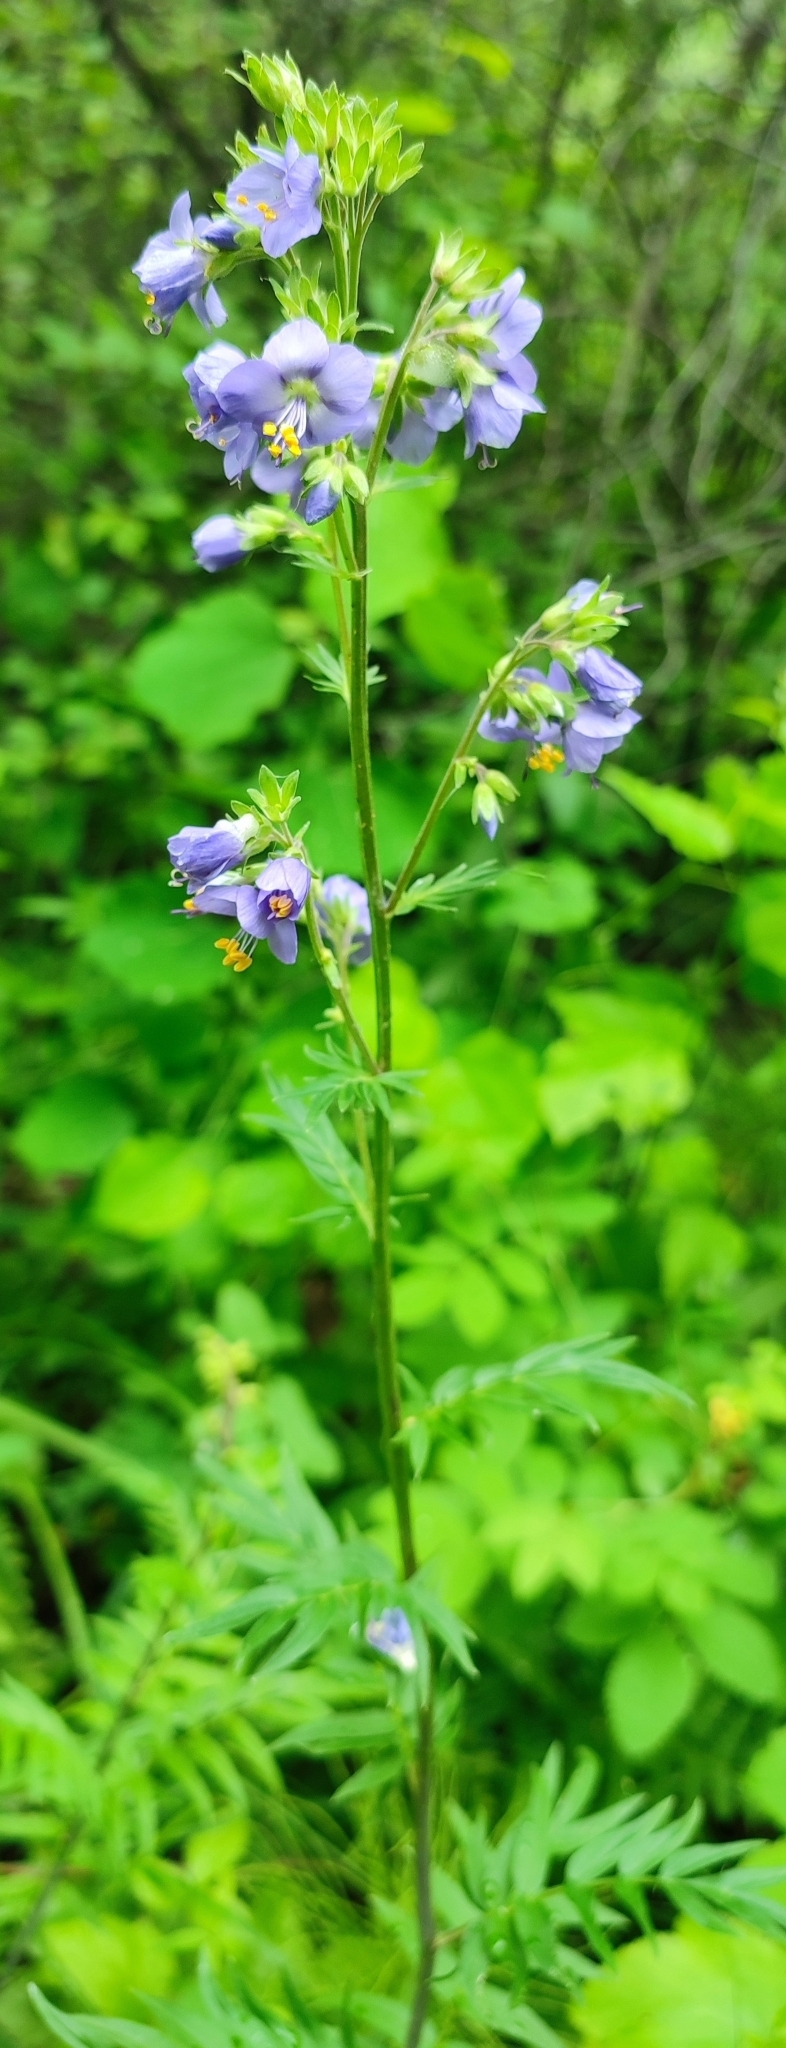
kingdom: Plantae
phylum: Tracheophyta
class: Magnoliopsida
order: Ericales
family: Polemoniaceae
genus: Polemonium
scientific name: Polemonium caeruleum
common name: Jacob's-ladder
